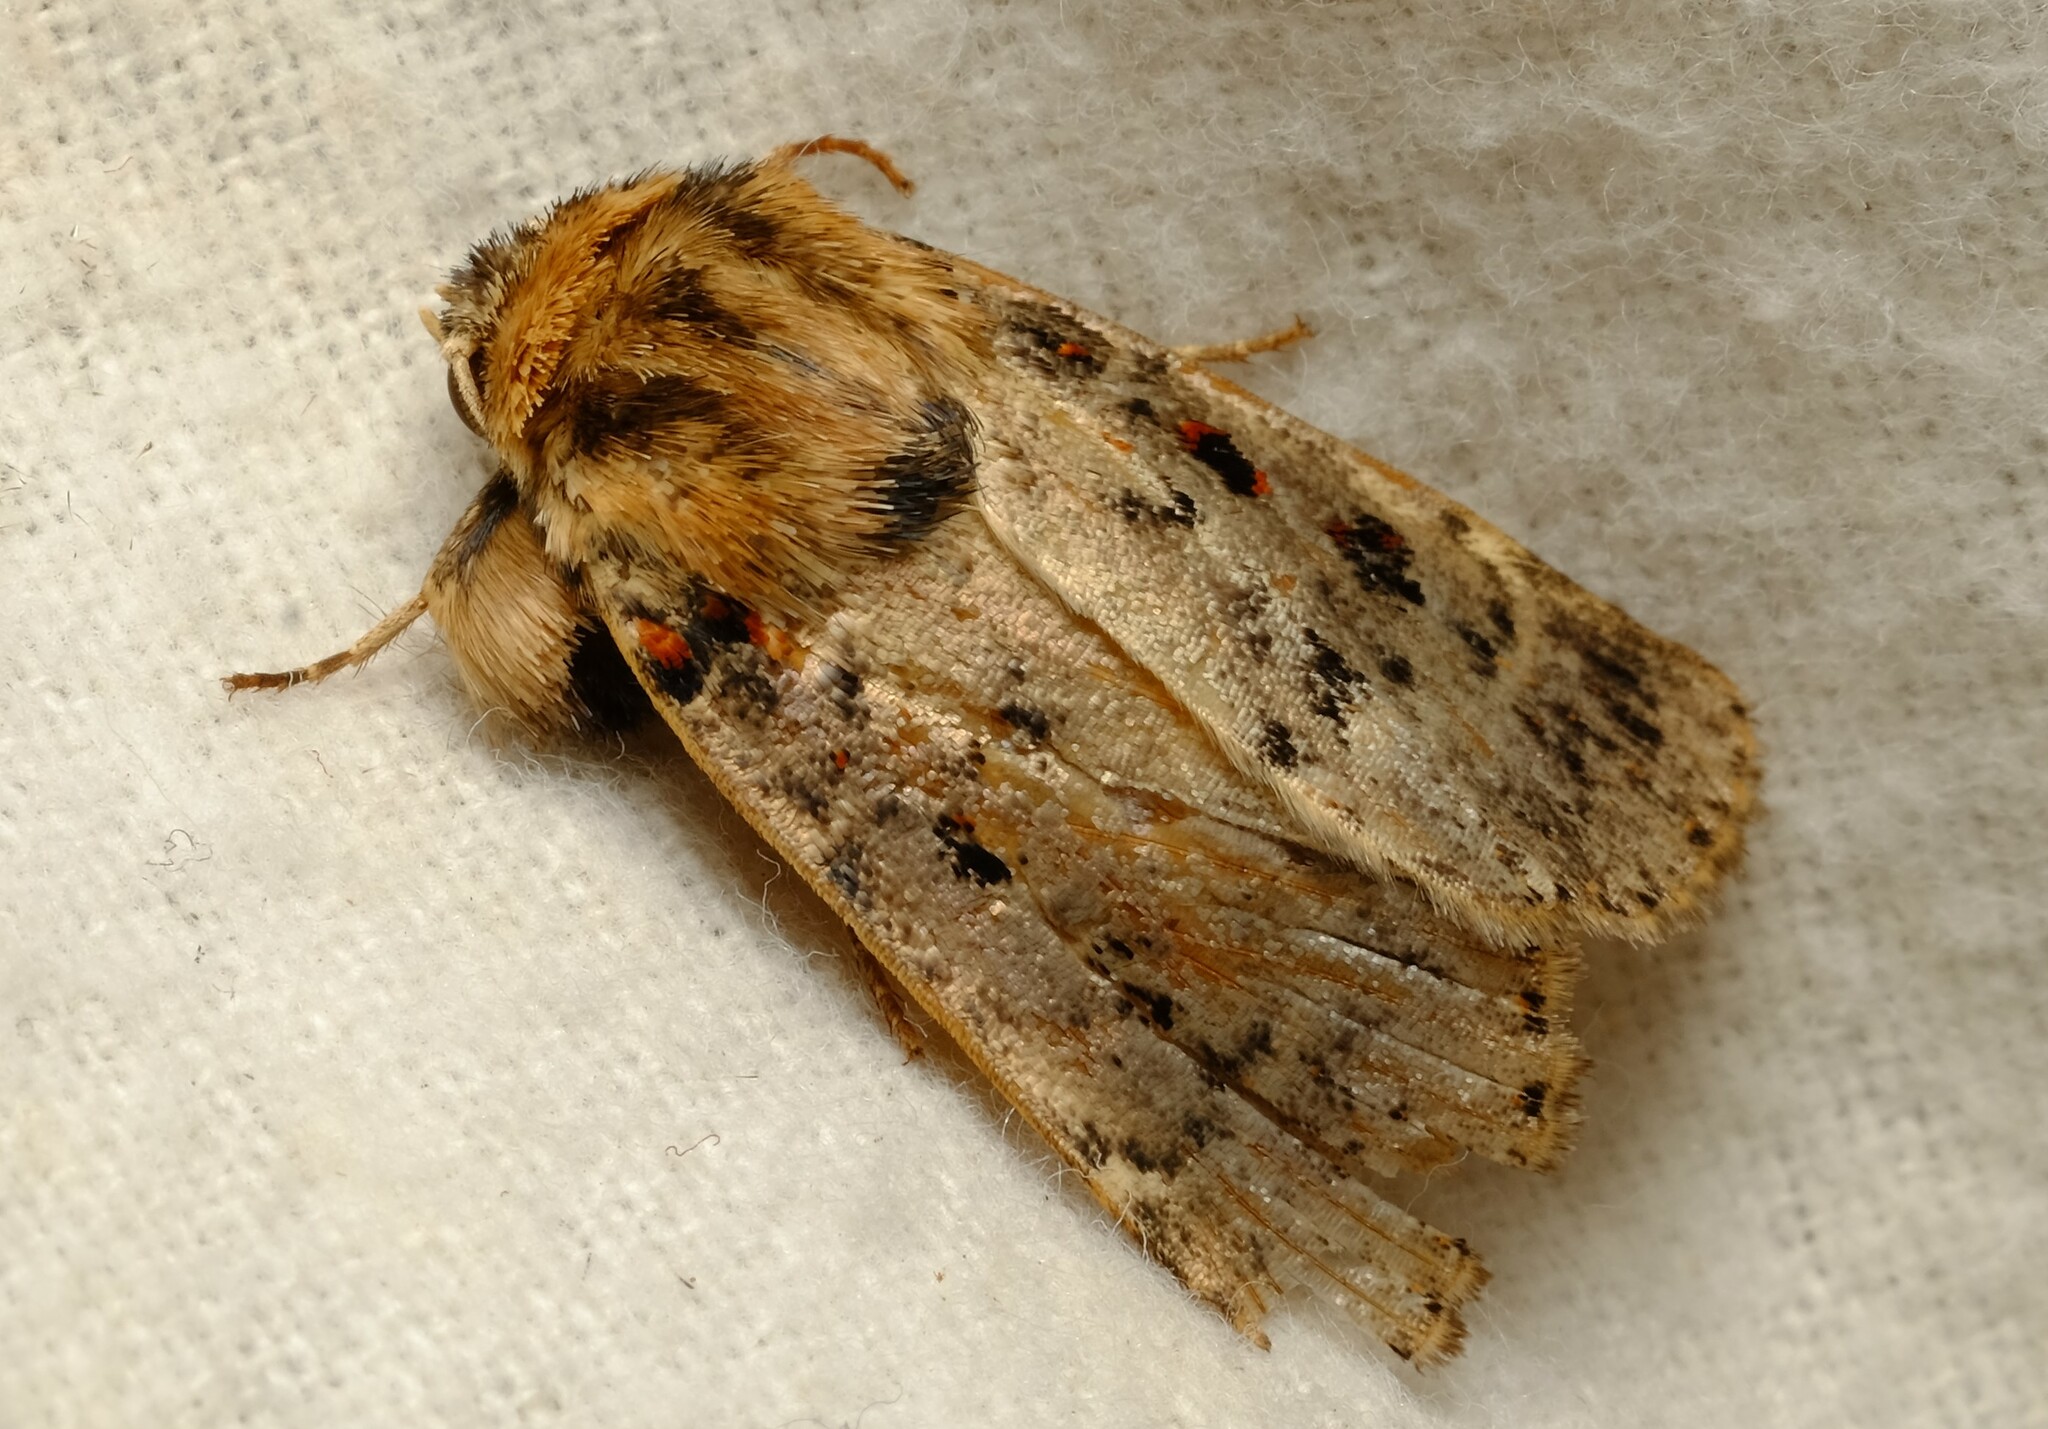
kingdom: Animalia
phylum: Arthropoda
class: Insecta
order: Lepidoptera
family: Noctuidae
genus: Proteuxoa
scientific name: Proteuxoa sanguinipuncta
